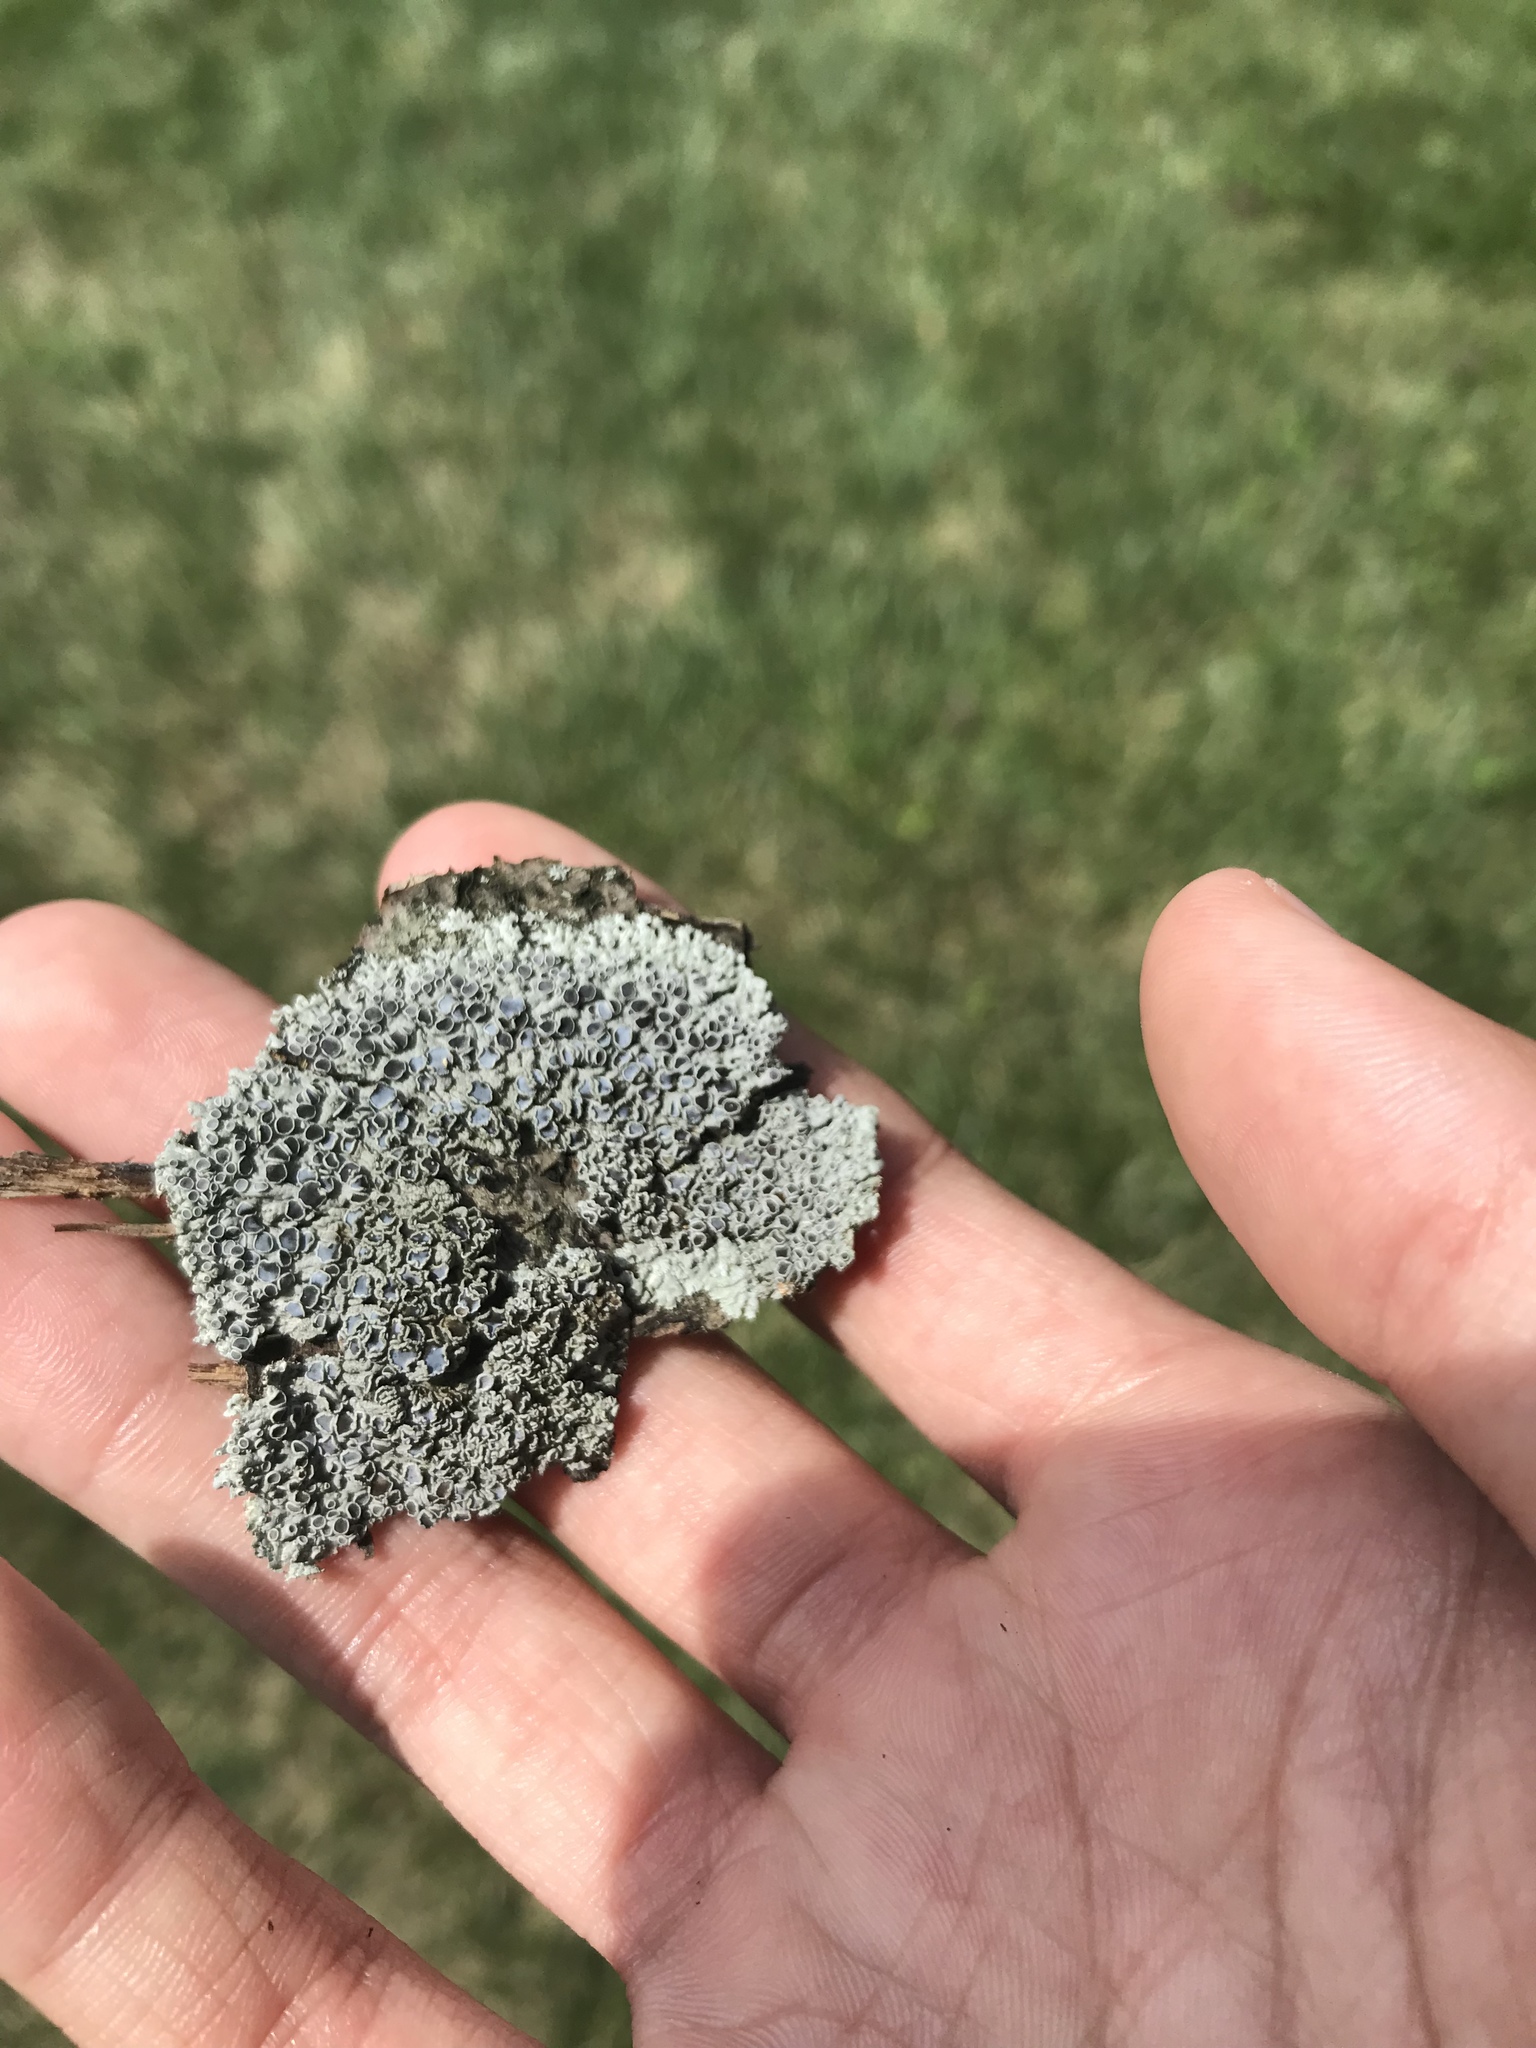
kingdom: Fungi
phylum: Ascomycota
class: Lecanoromycetes
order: Caliciales
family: Physciaceae
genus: Physcia
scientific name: Physcia stellaris
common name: Star rosette lichen
